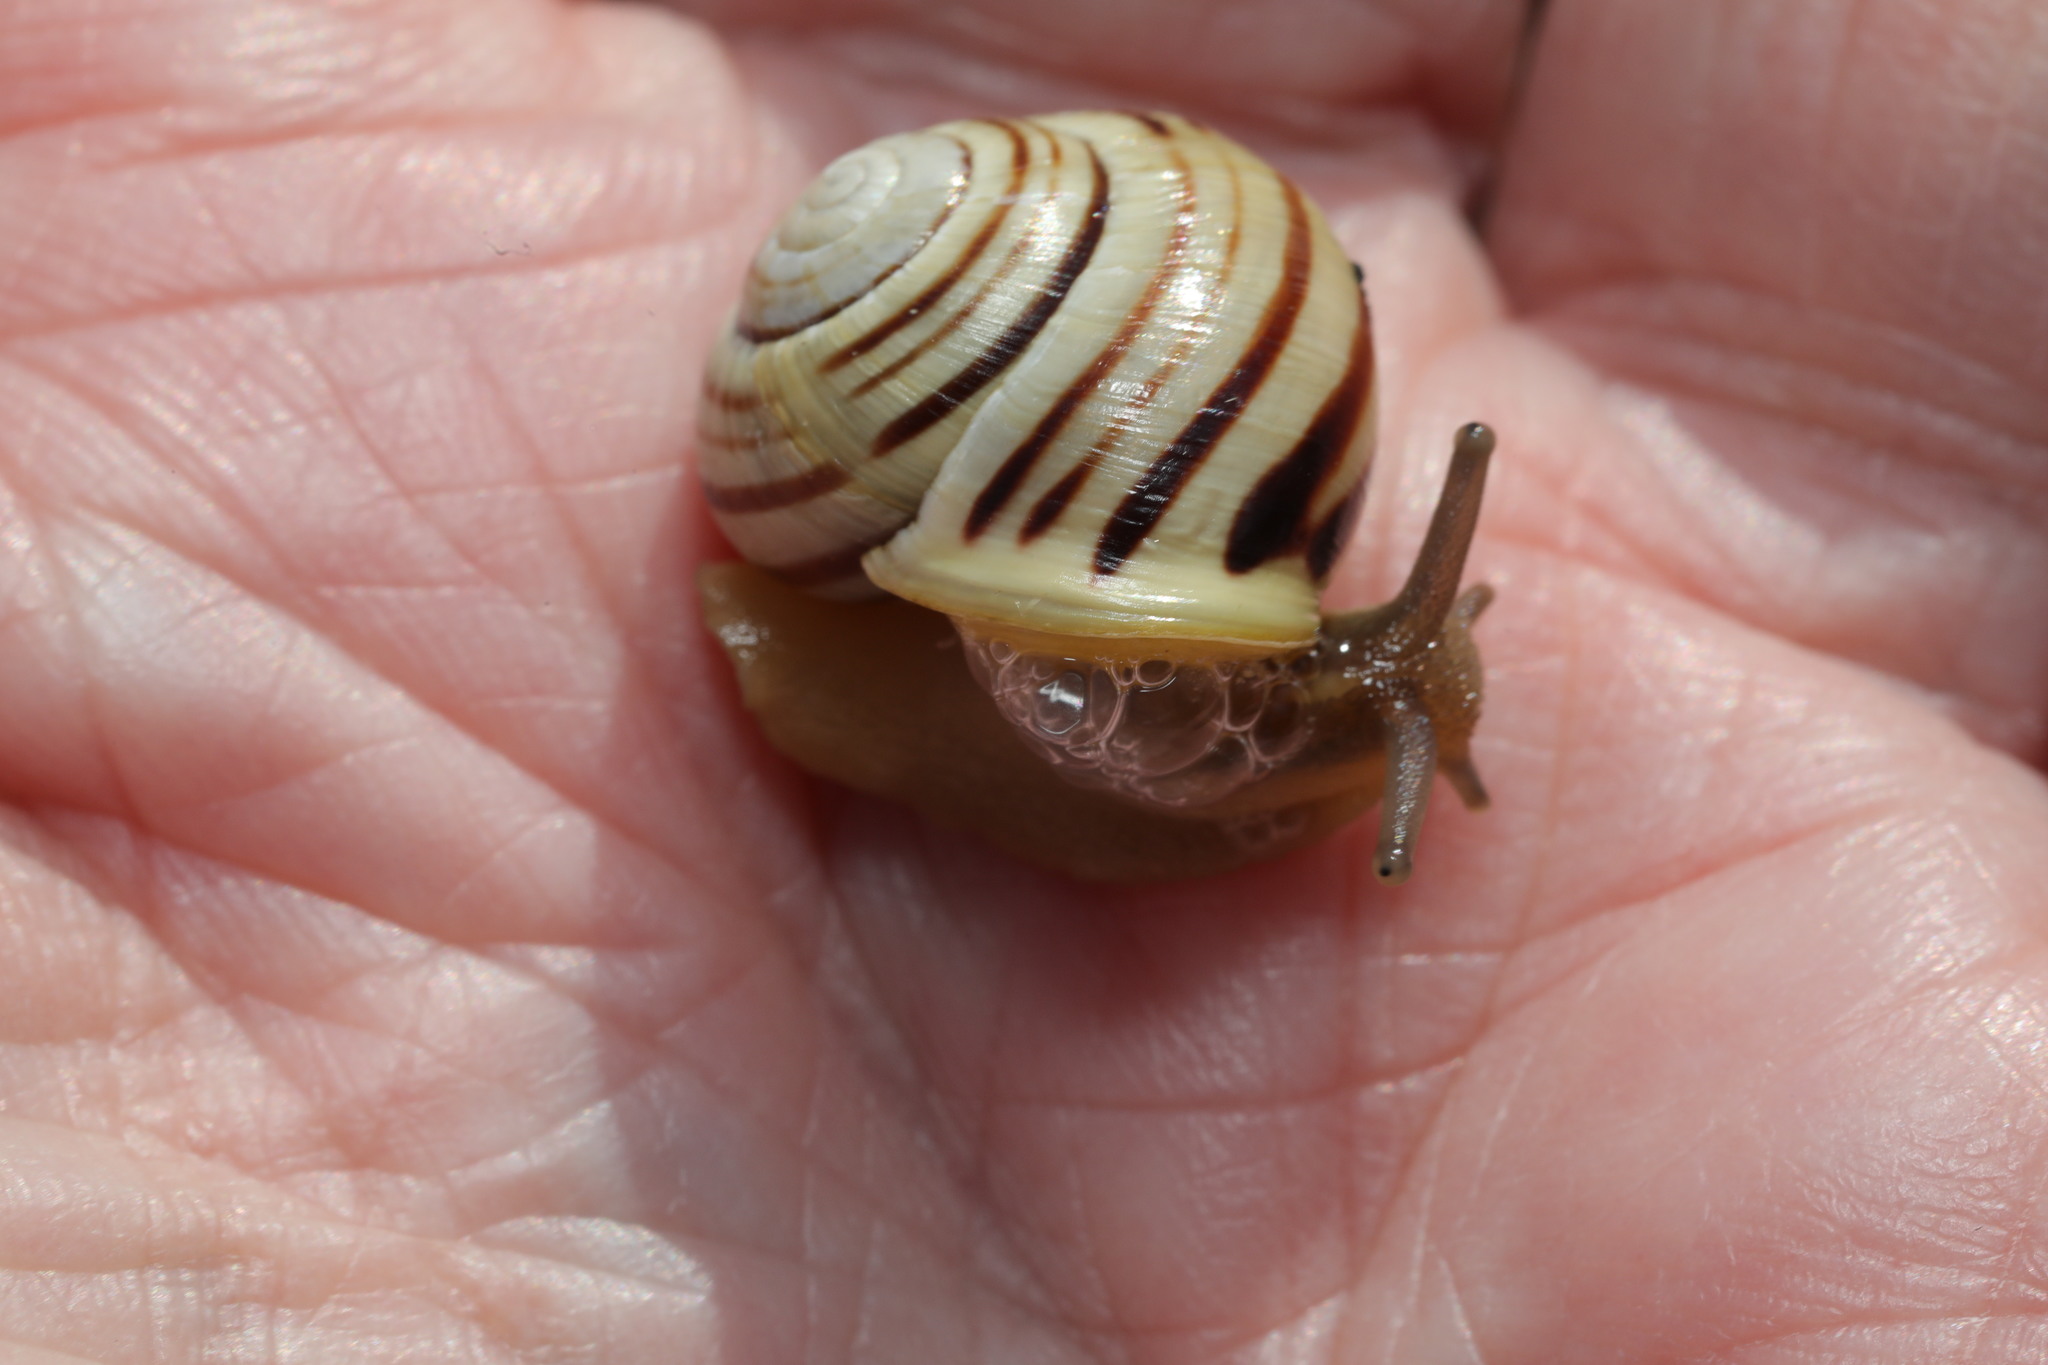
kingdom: Animalia
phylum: Mollusca
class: Gastropoda
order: Stylommatophora
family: Helicidae
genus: Cepaea
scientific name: Cepaea hortensis
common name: White-lip gardensnail
